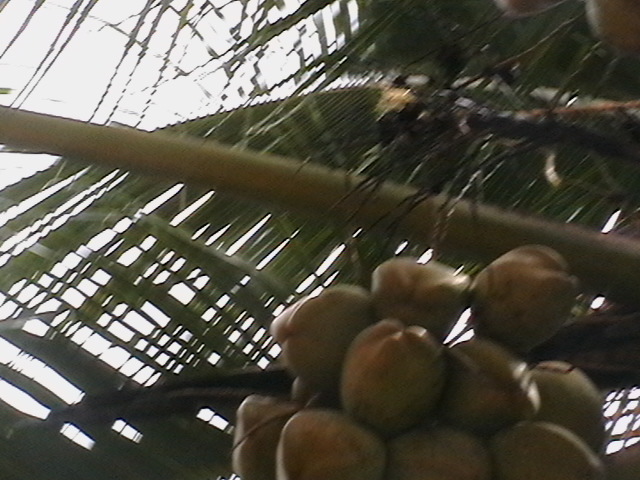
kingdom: Plantae
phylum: Tracheophyta
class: Liliopsida
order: Arecales
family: Arecaceae
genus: Cocos
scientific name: Cocos nucifera
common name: Coconut palm
